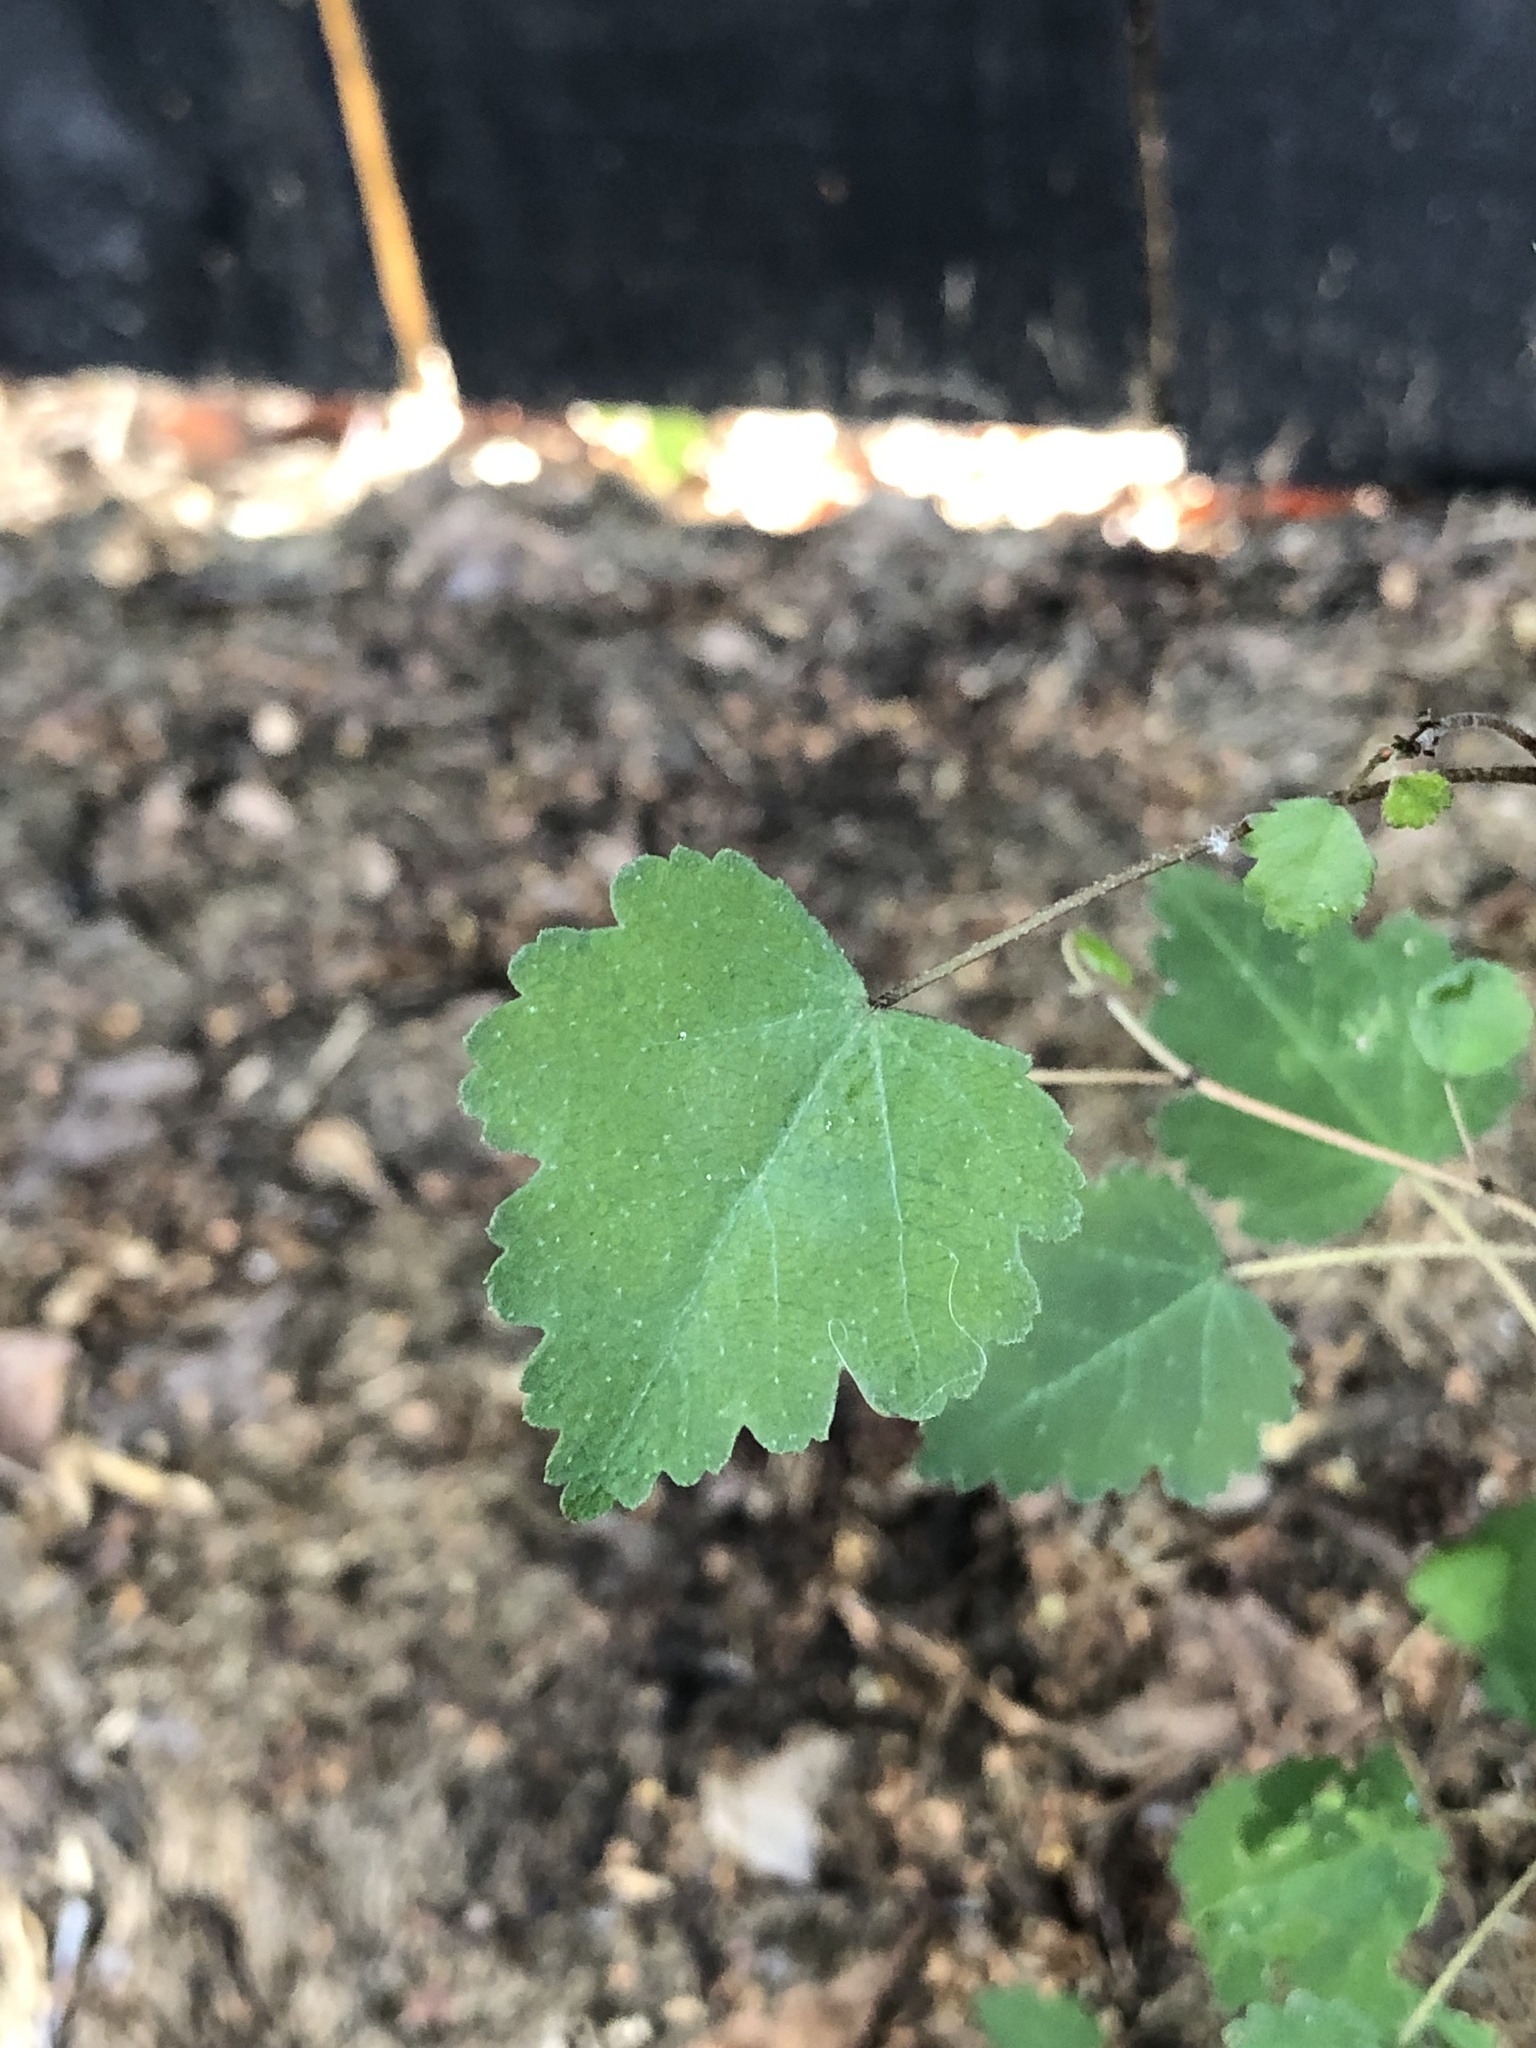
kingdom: Plantae
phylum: Tracheophyta
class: Magnoliopsida
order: Malvales
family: Malvaceae
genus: Plagianthus
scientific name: Plagianthus regius
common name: Manatu
